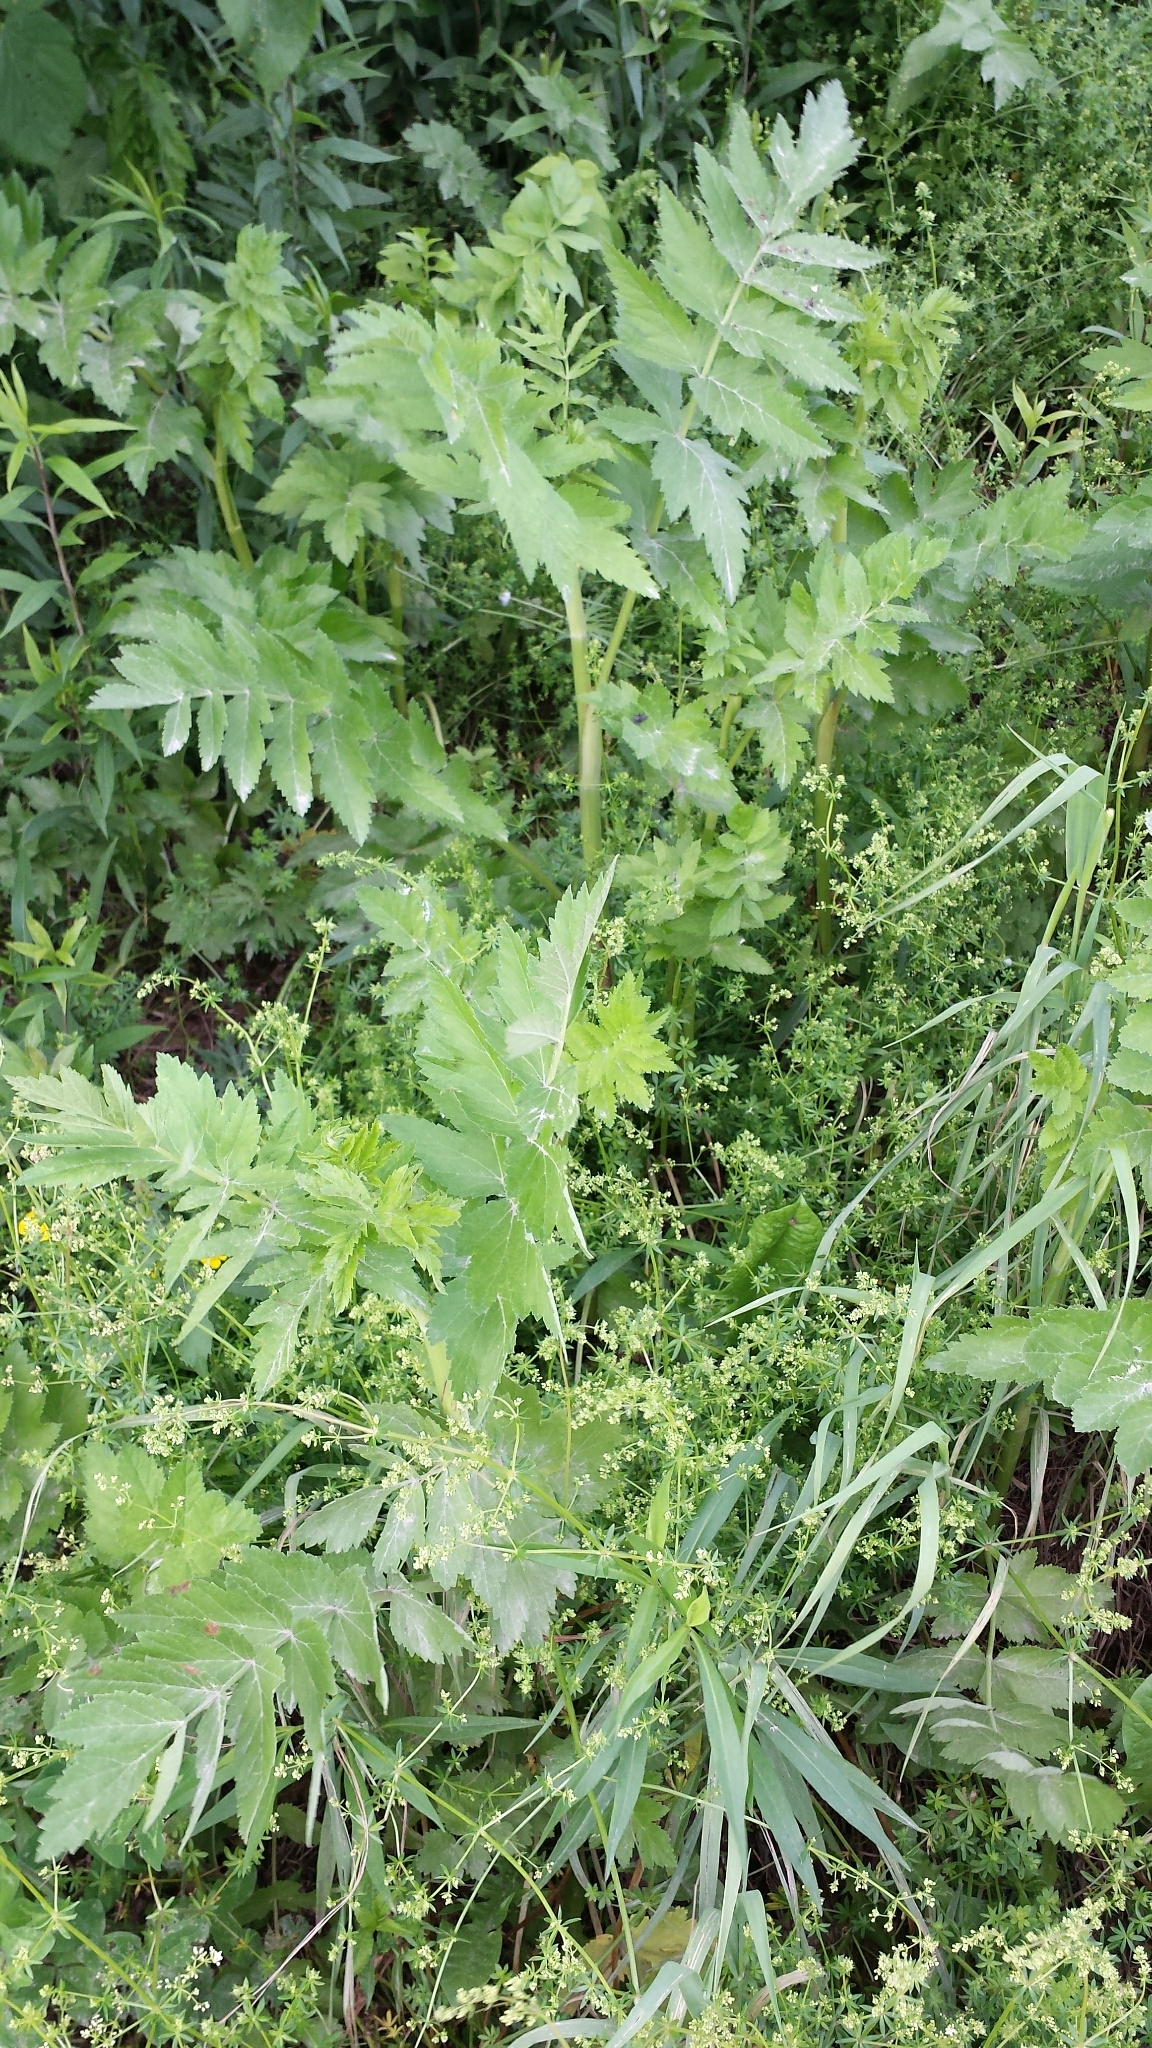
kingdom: Plantae
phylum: Tracheophyta
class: Magnoliopsida
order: Apiales
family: Apiaceae
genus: Pastinaca
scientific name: Pastinaca sativa
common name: Wild parsnip
